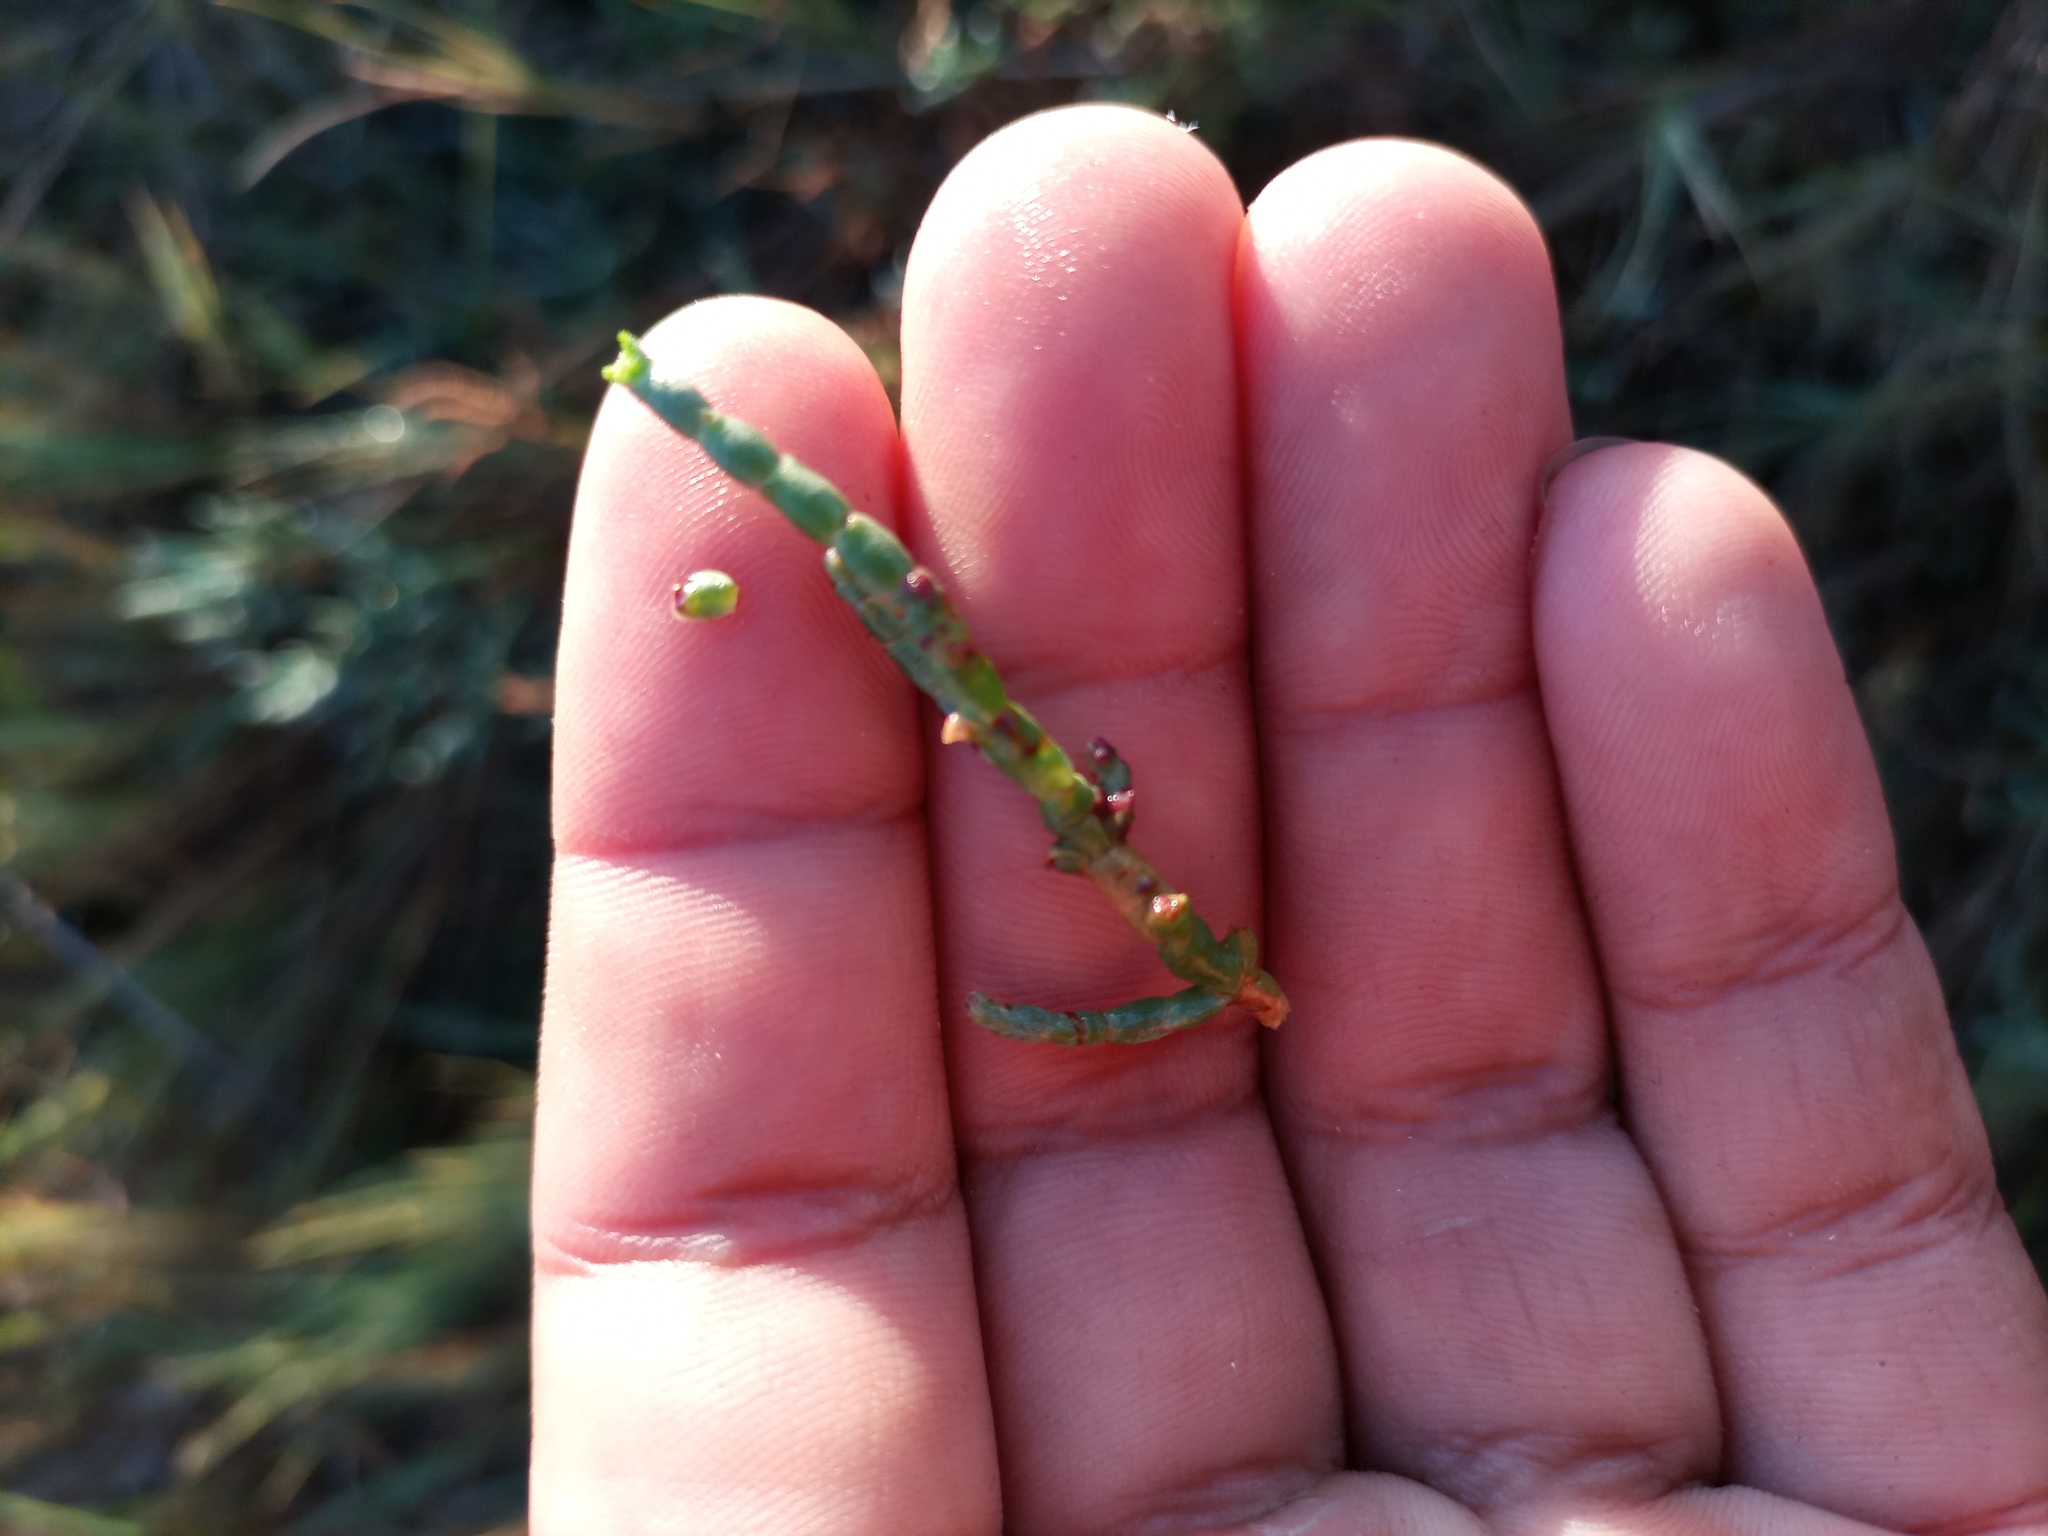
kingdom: Plantae
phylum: Tracheophyta
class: Magnoliopsida
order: Caryophyllales
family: Amaranthaceae
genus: Salicornia
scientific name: Salicornia ambigua
